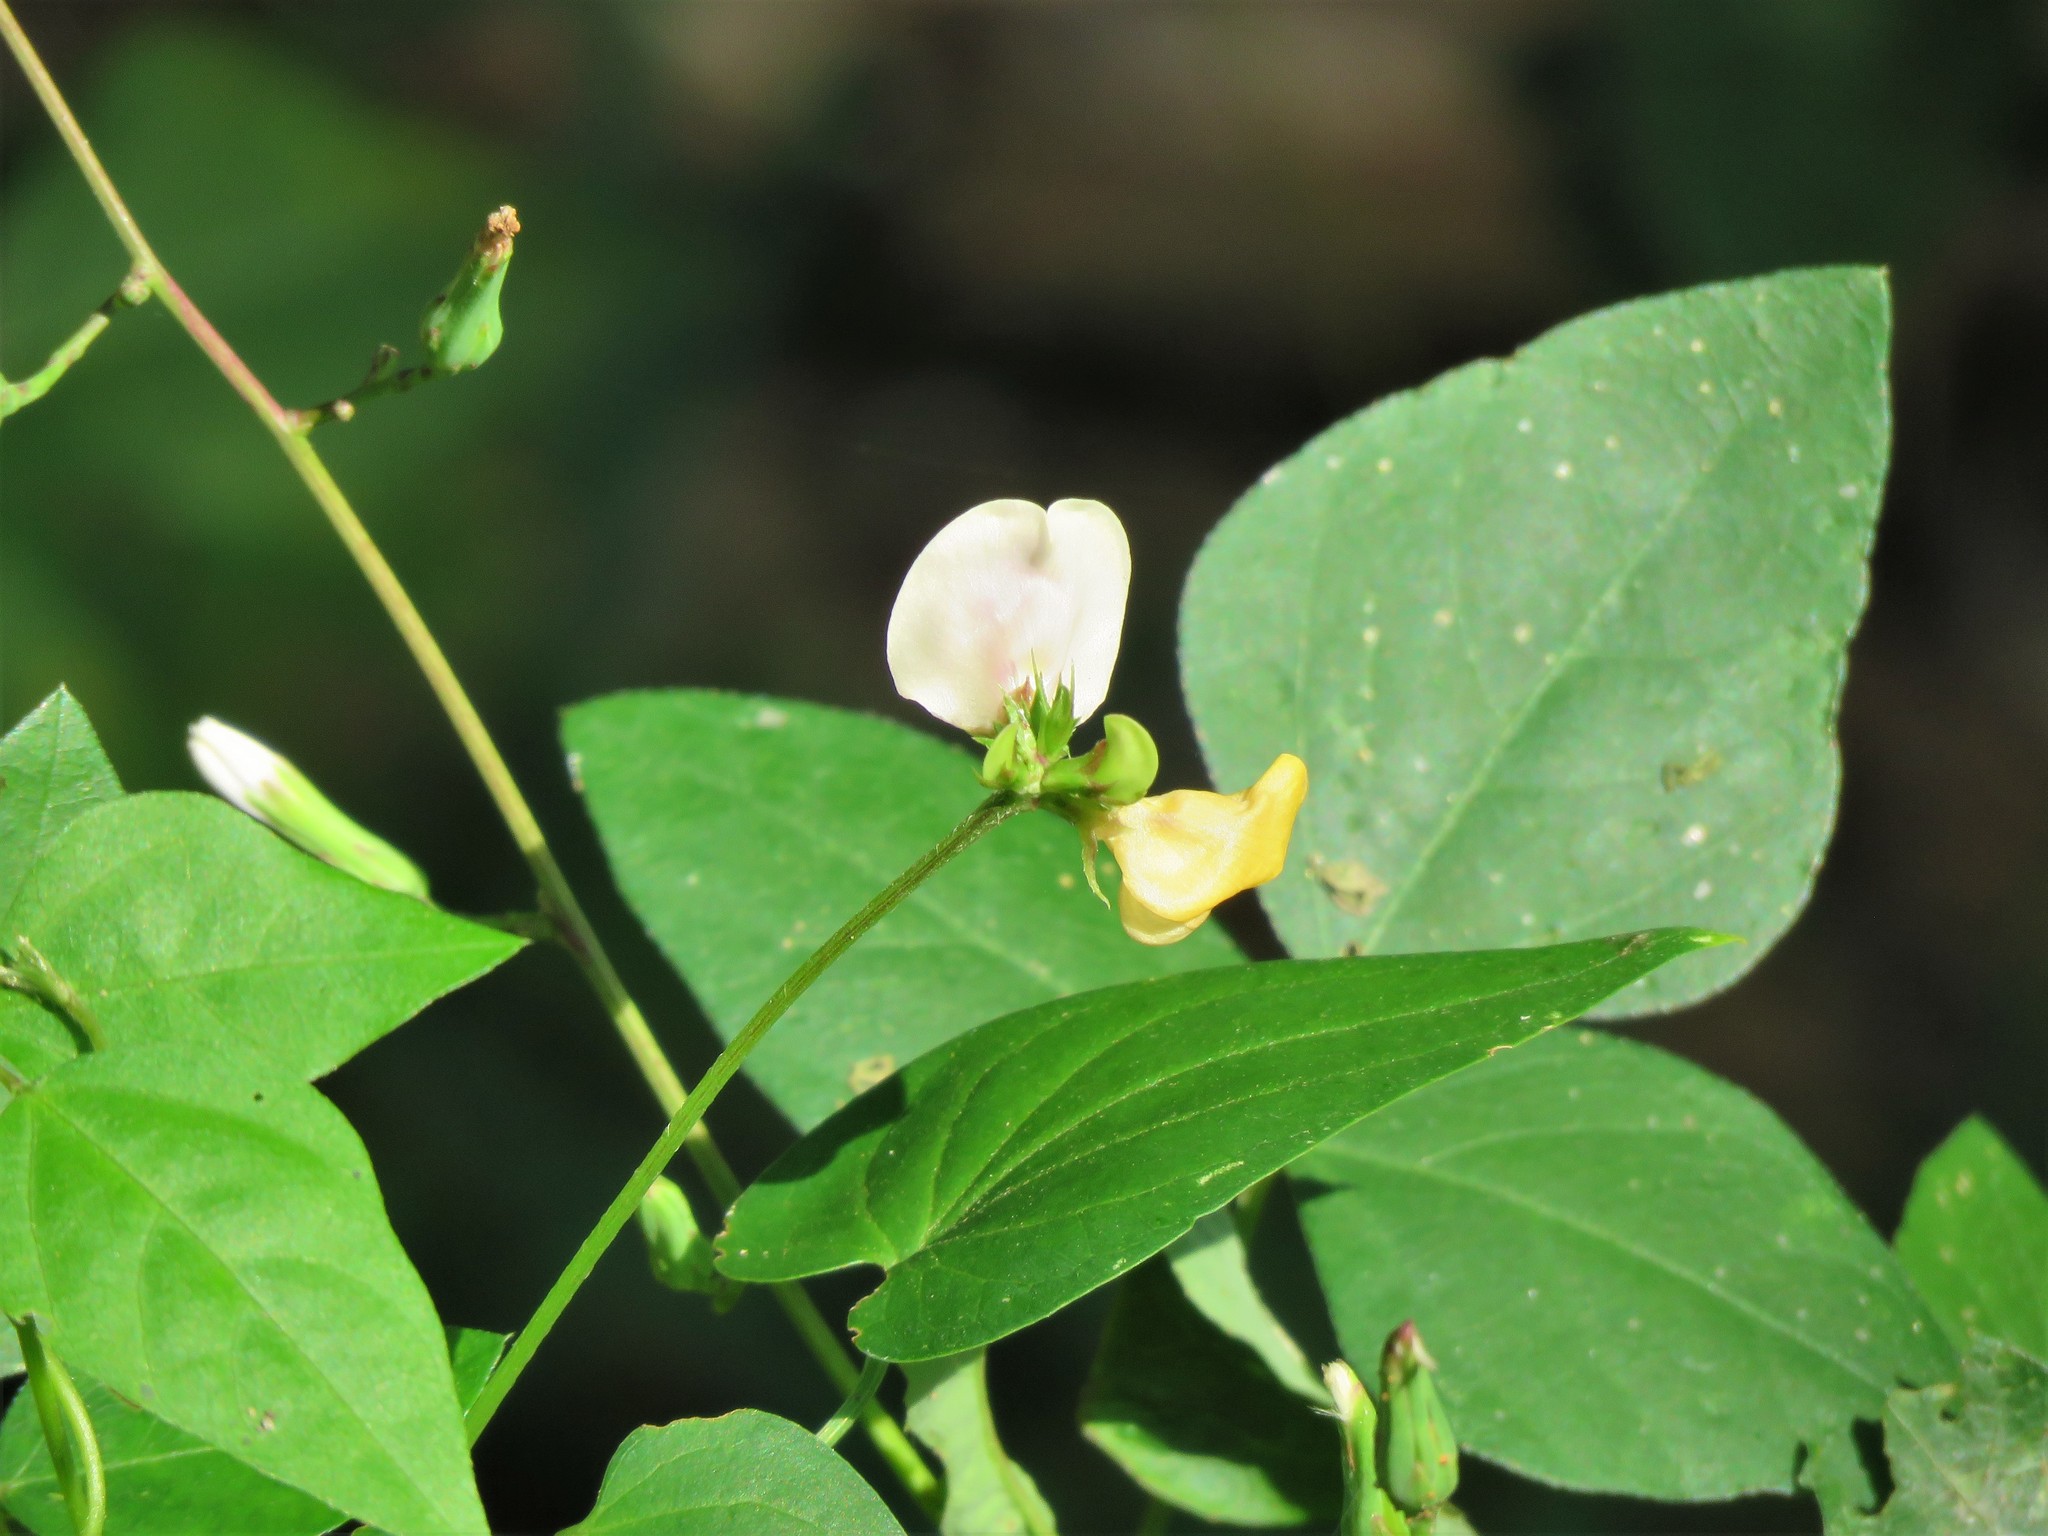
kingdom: Plantae
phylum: Tracheophyta
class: Magnoliopsida
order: Fabales
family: Fabaceae
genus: Strophostyles
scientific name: Strophostyles helvola
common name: Trailing wild bean
